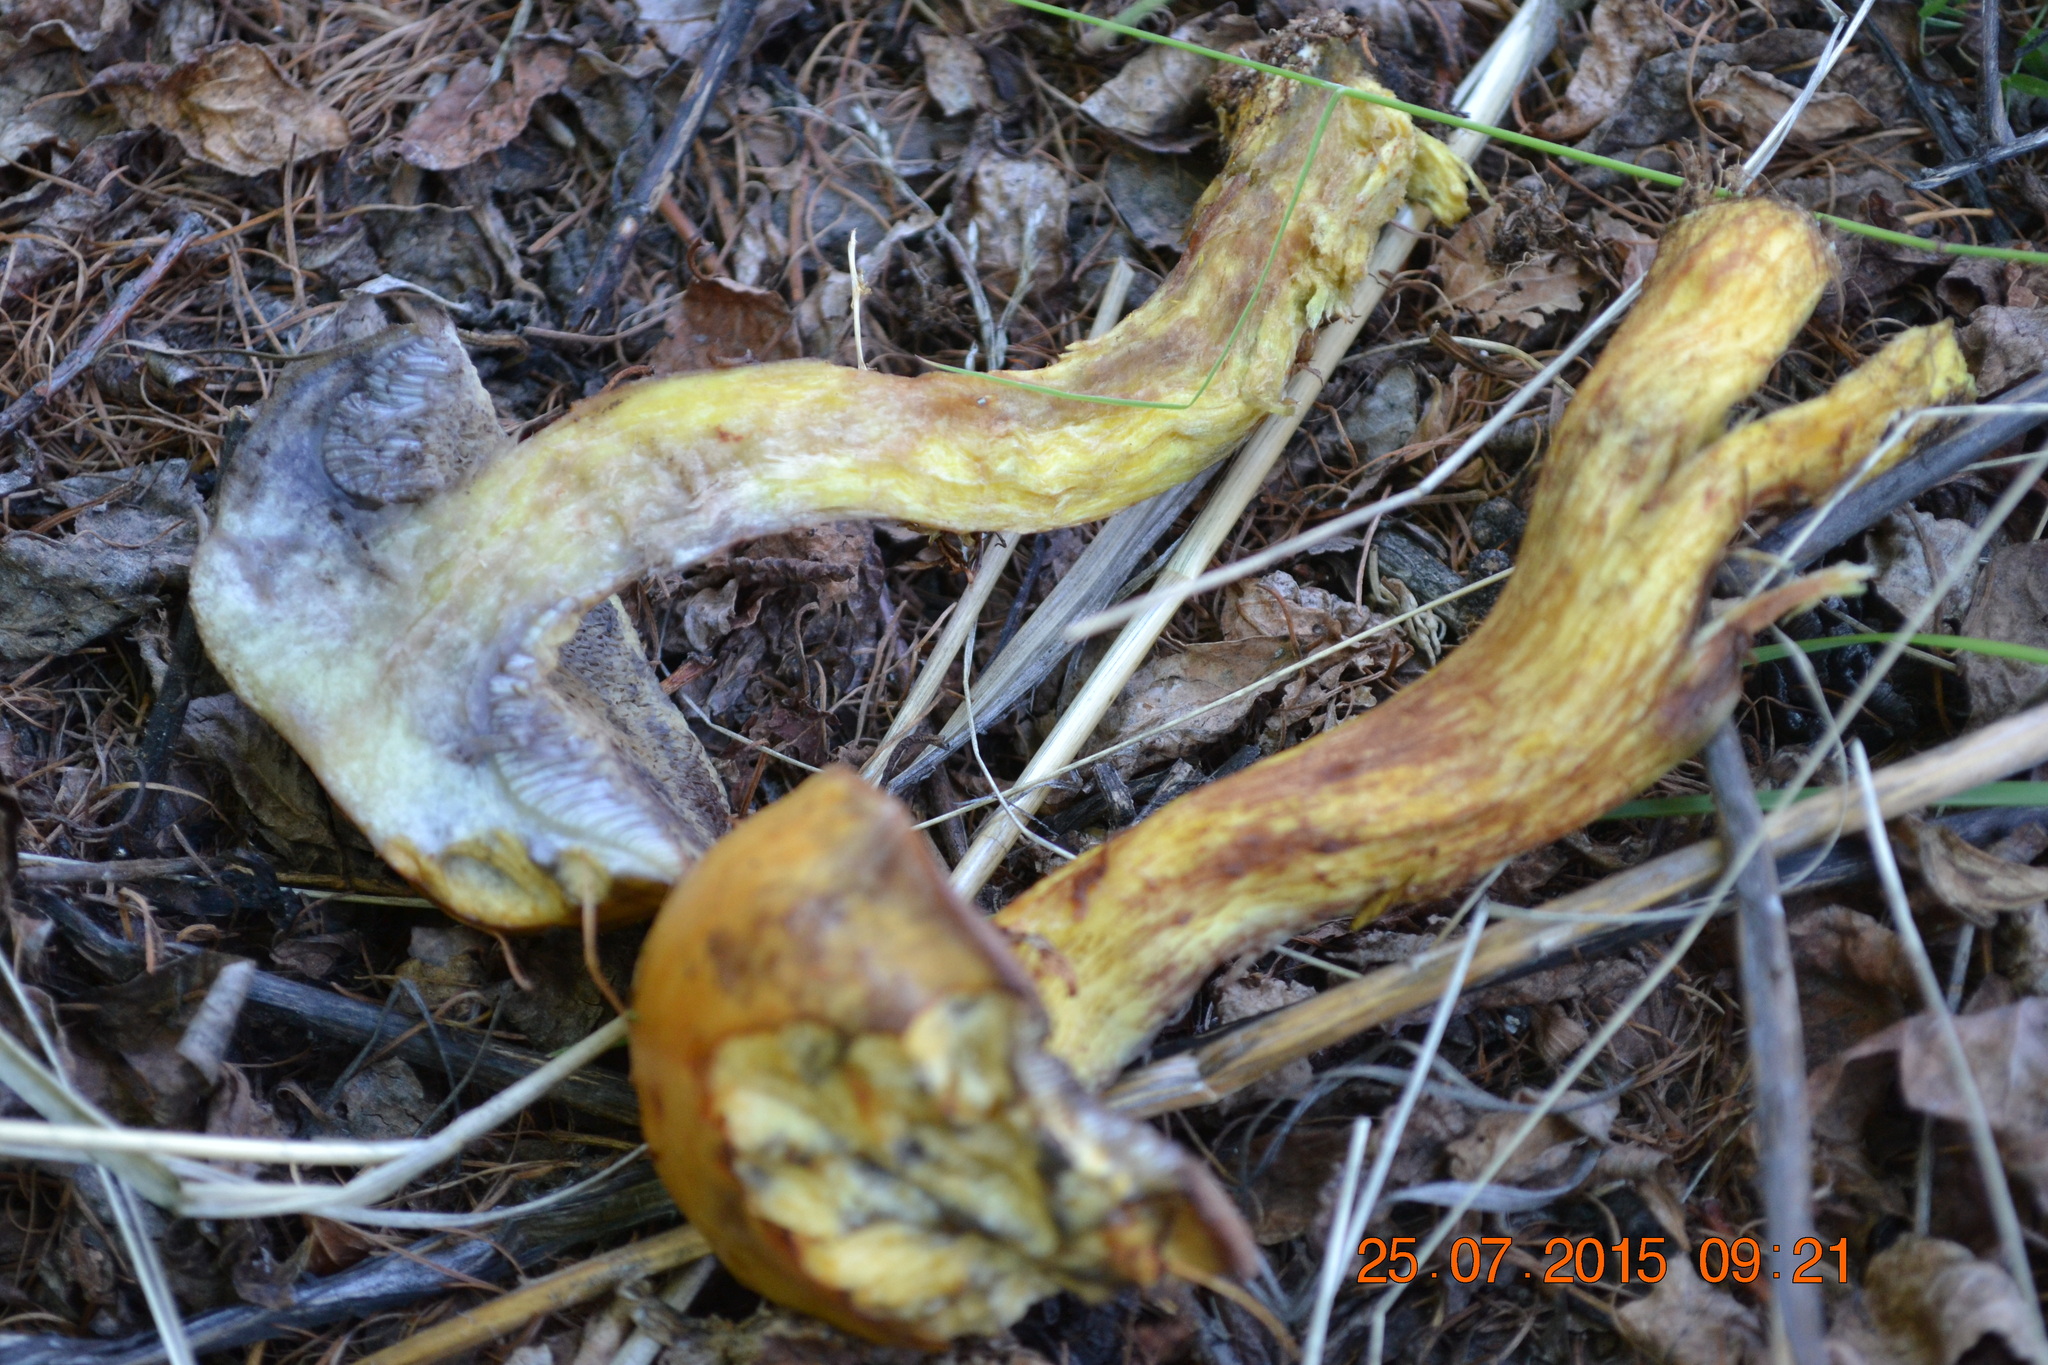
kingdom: Fungi
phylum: Basidiomycota
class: Agaricomycetes
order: Boletales
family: Suillaceae
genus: Suillus
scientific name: Suillus americanus
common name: Chicken fat mushroom
